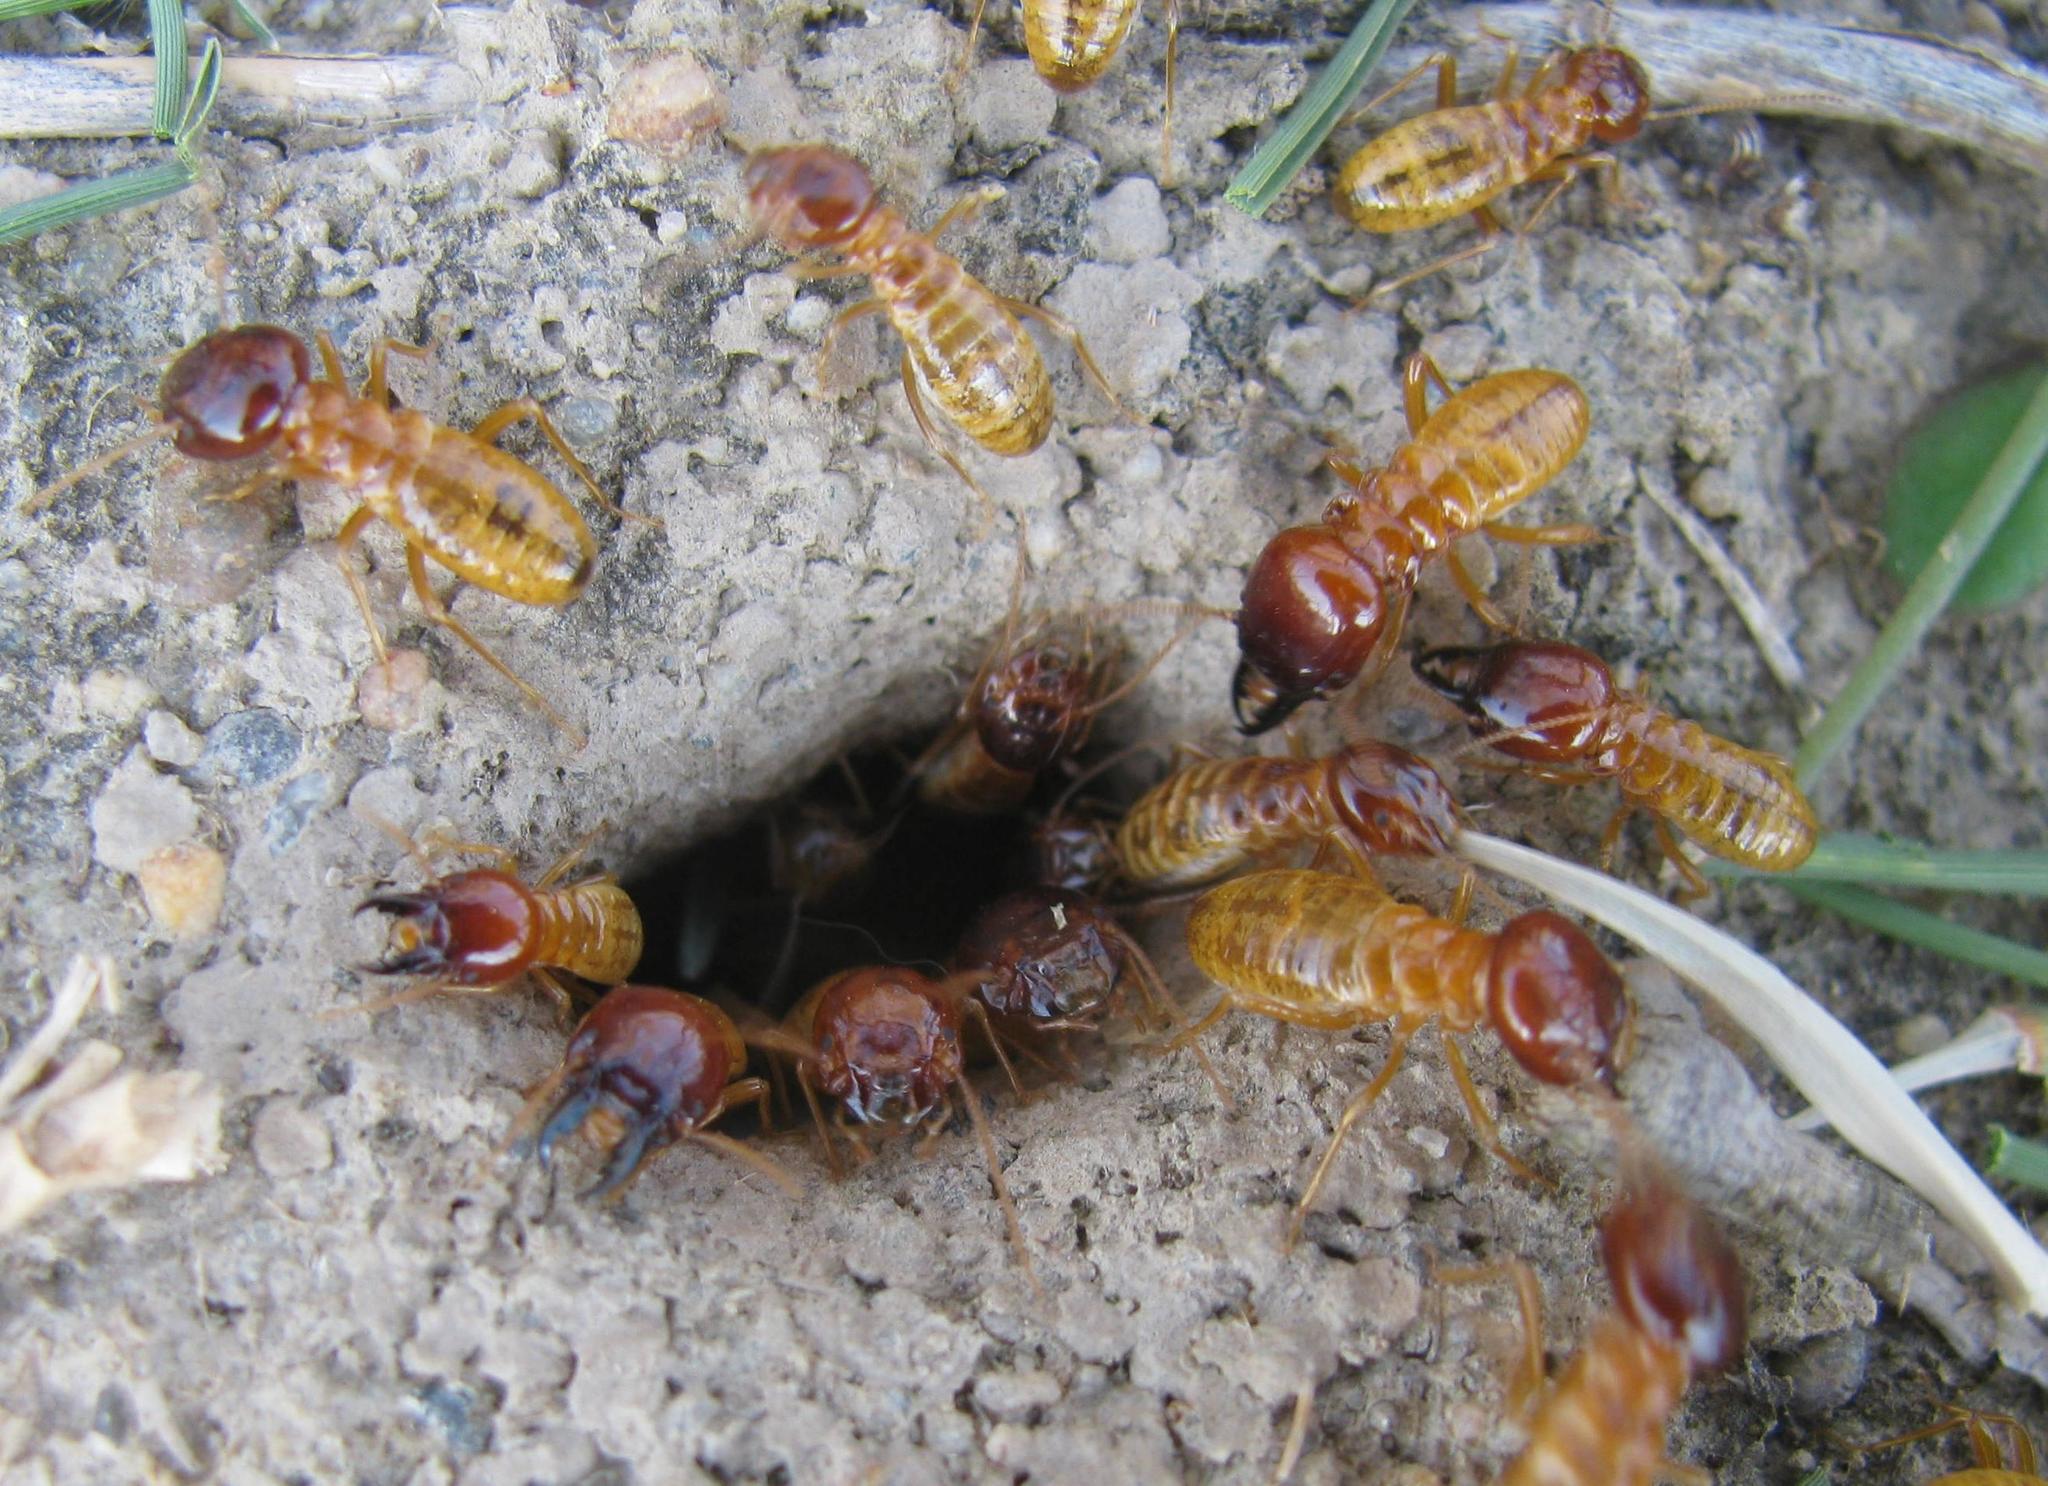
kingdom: Animalia
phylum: Arthropoda
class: Insecta
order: Blattodea
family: Hodotermitidae
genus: Microhodotermes
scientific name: Microhodotermes viator
